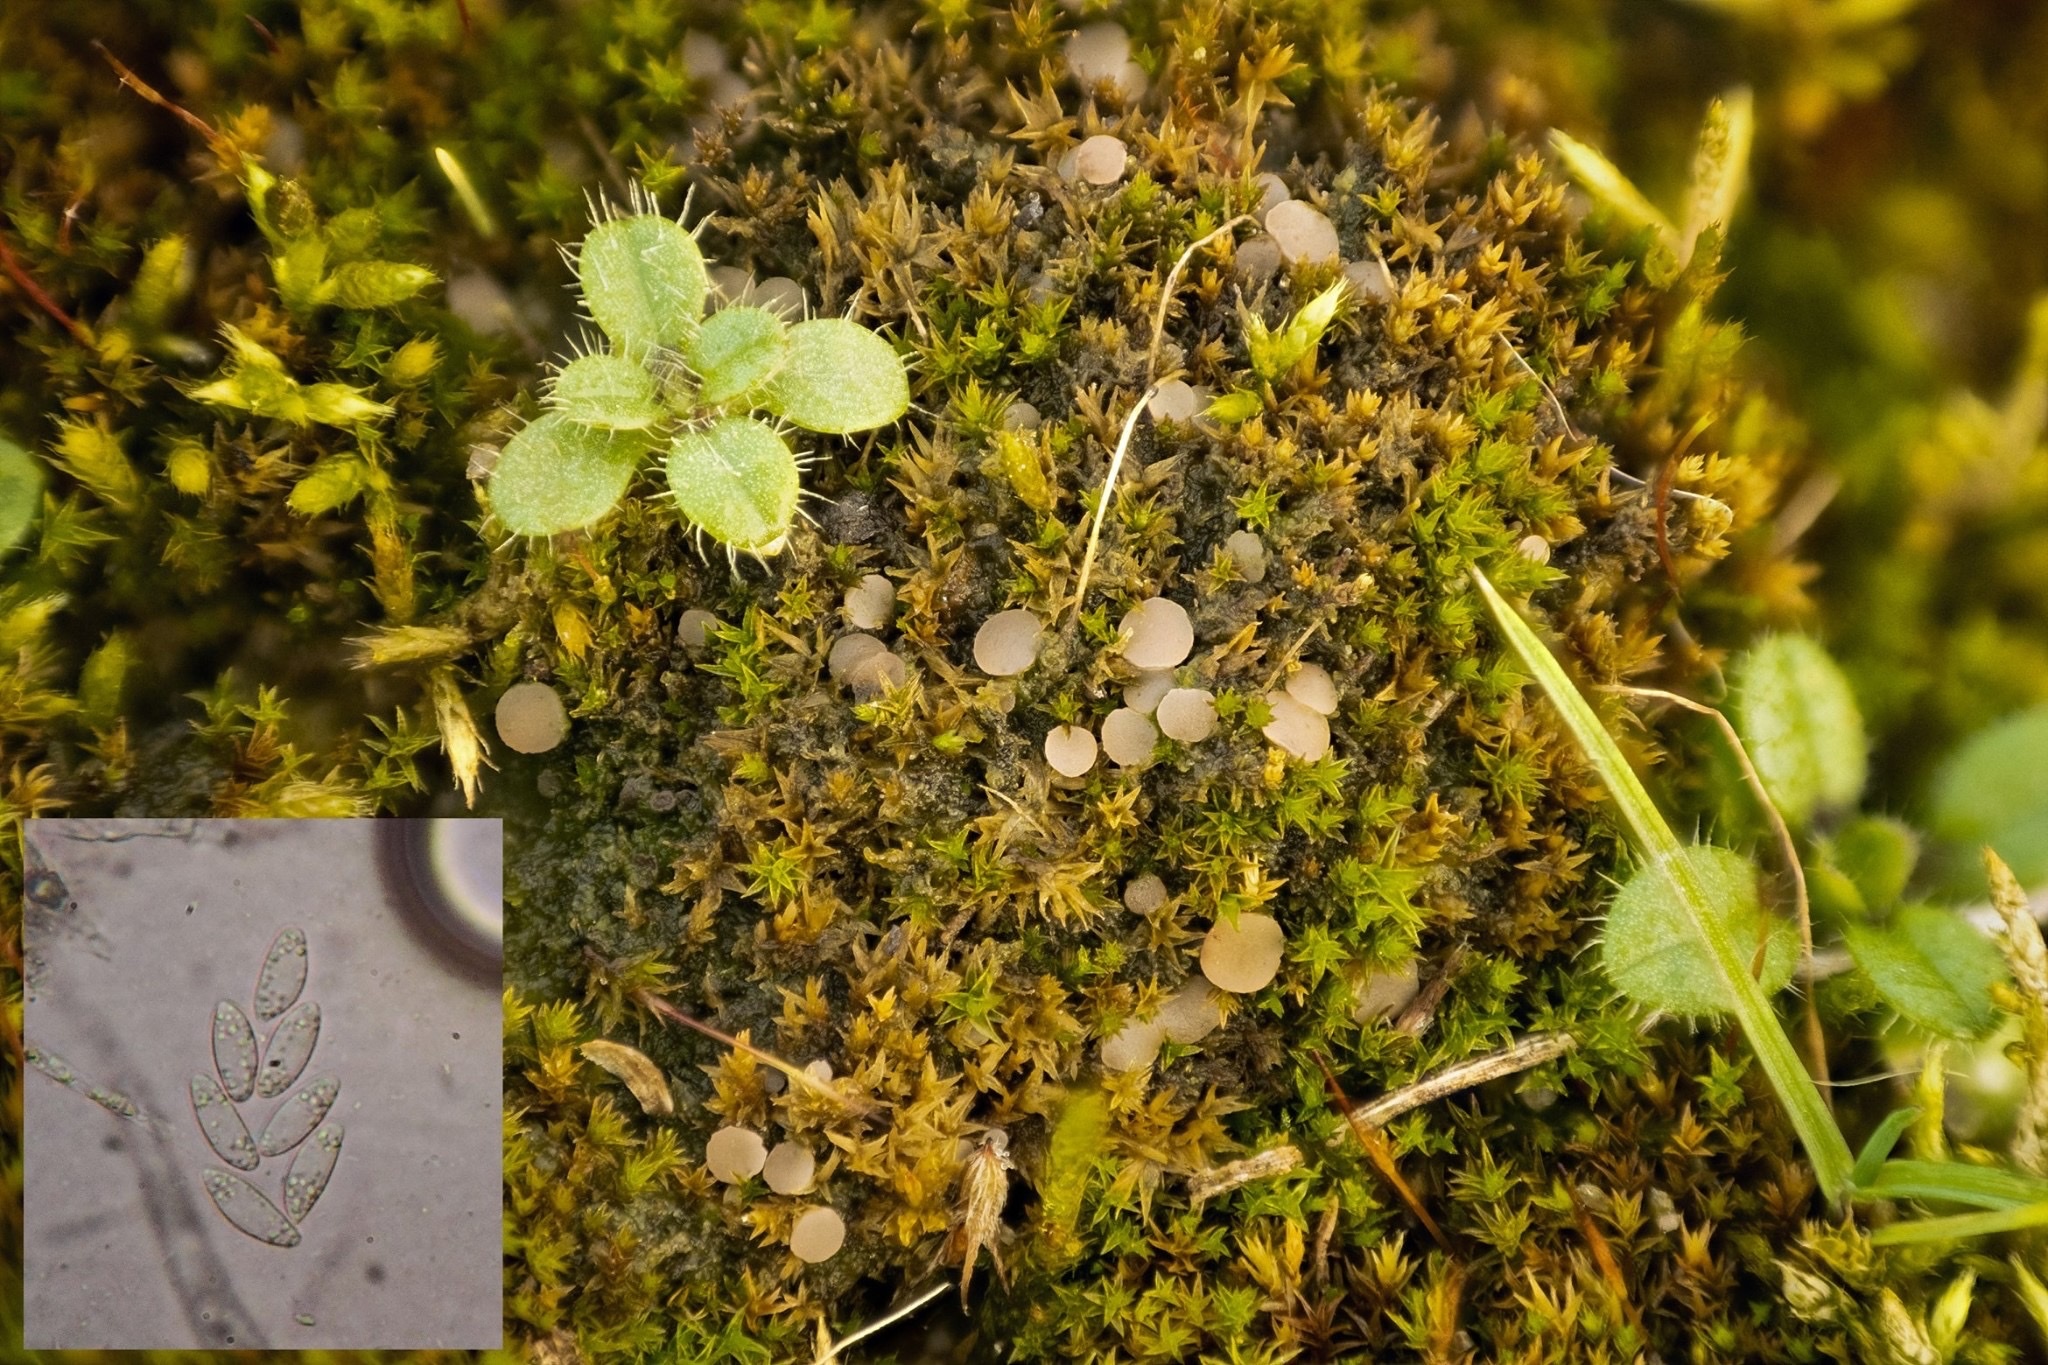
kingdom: Fungi
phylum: Ascomycota
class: Leotiomycetes
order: Helotiales
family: Helotiaceae
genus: Bryoscyphus
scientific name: Bryoscyphus dicrani
